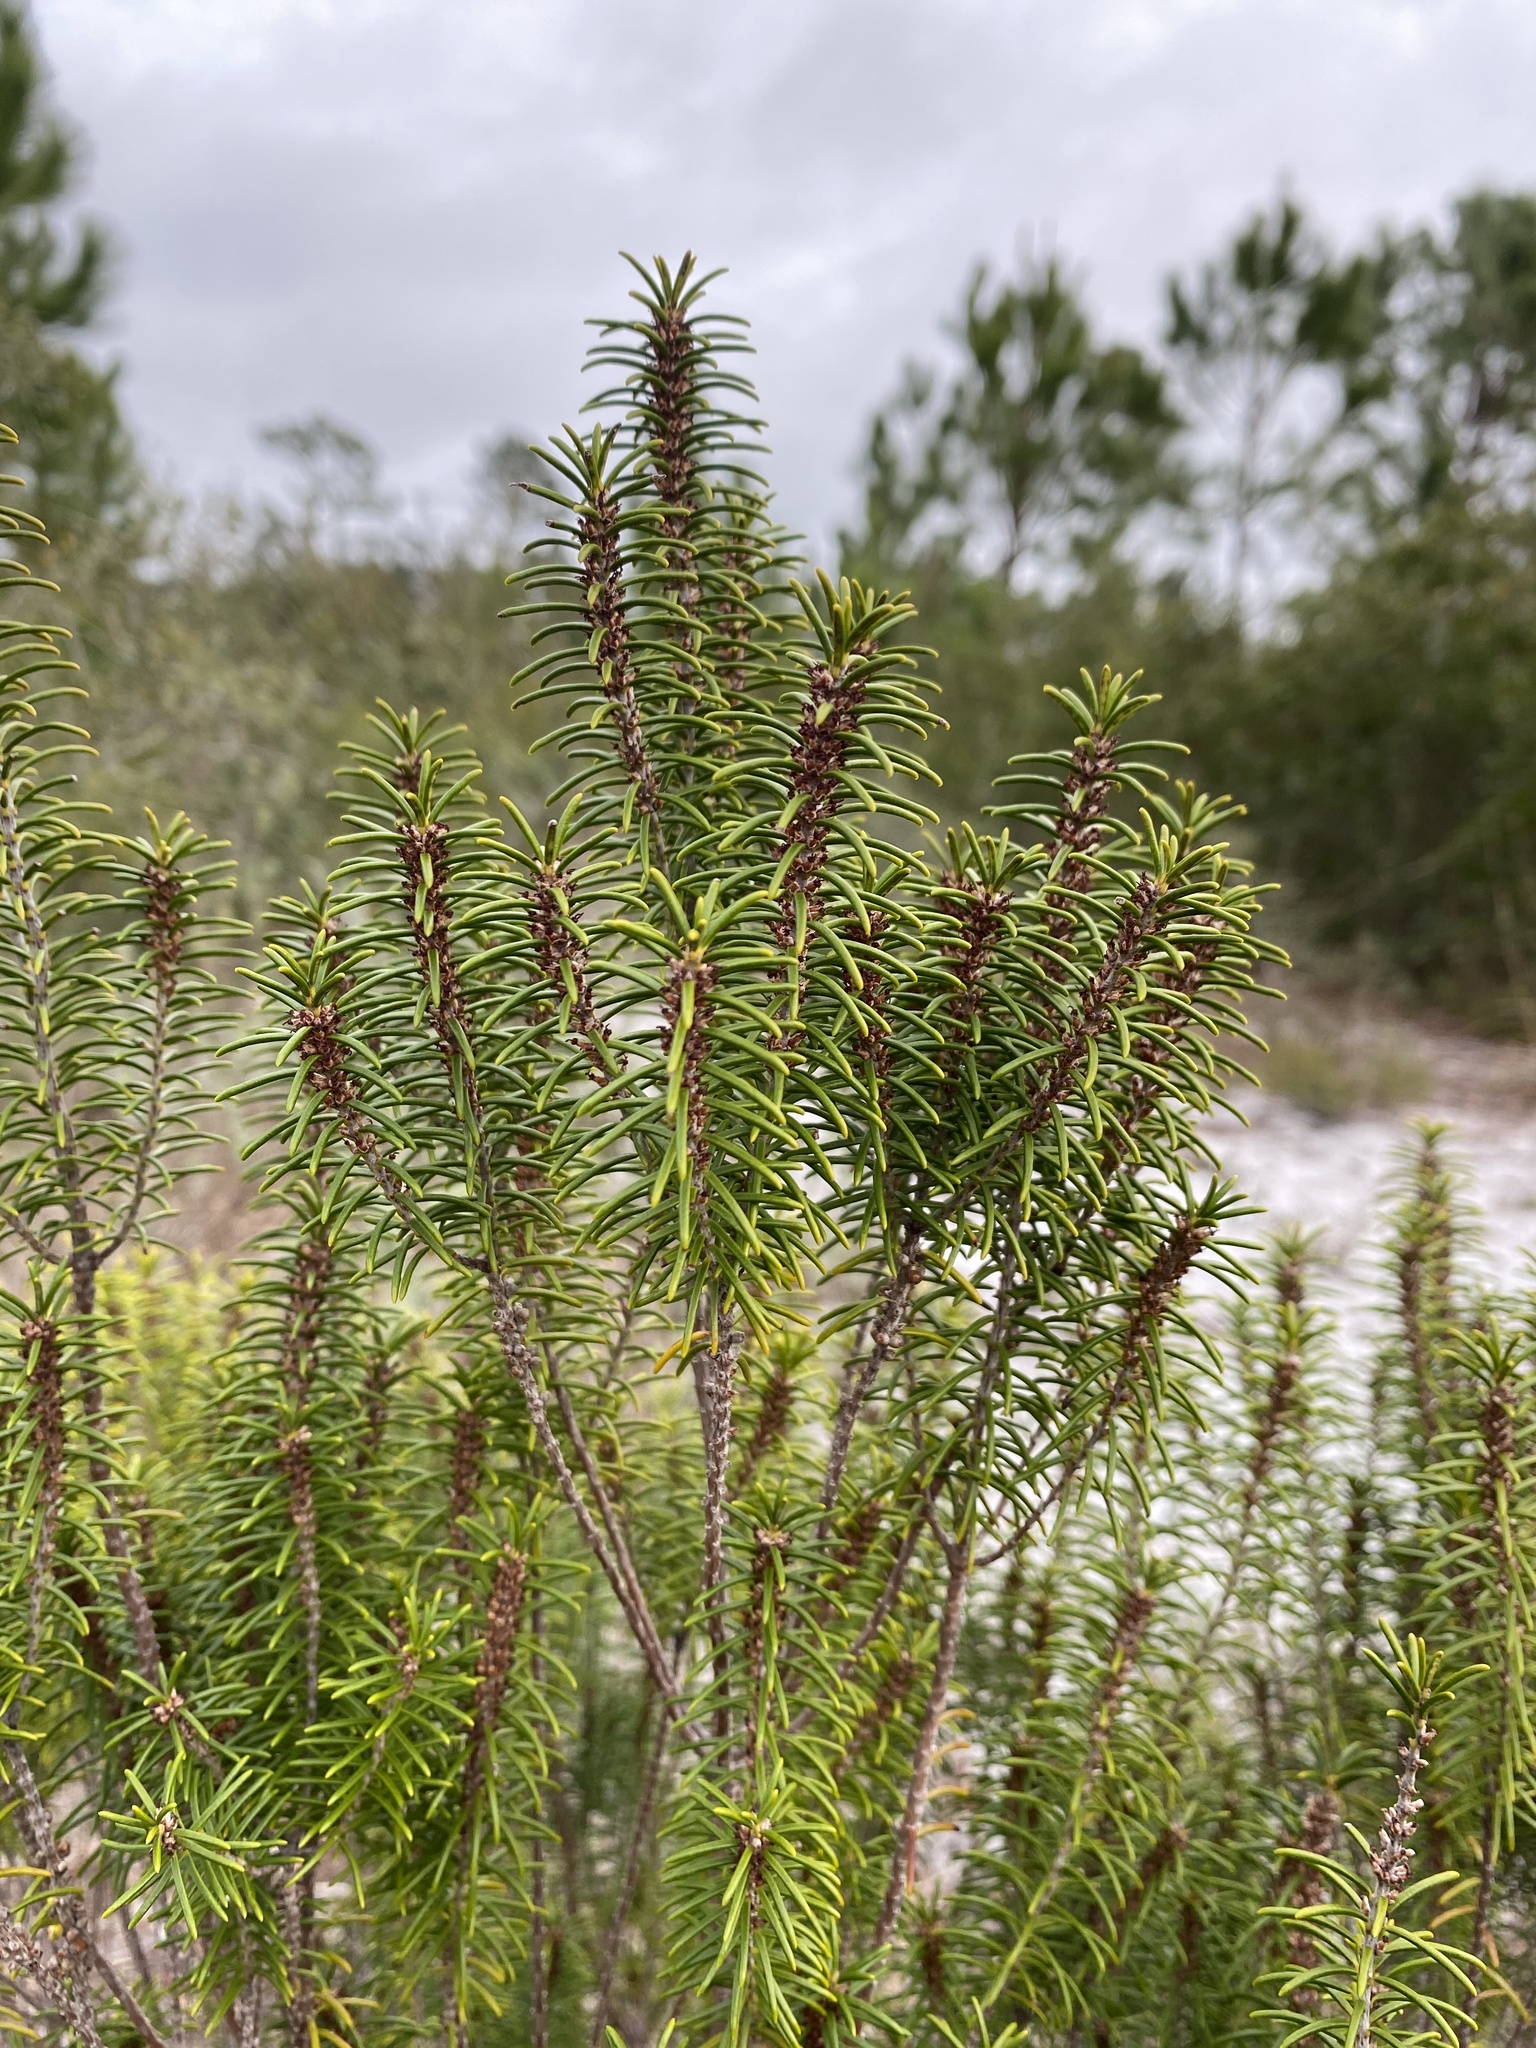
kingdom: Plantae
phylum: Tracheophyta
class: Magnoliopsida
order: Ericales
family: Ericaceae
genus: Ceratiola
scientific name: Ceratiola ericoides
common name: Sandhill-rosemary
